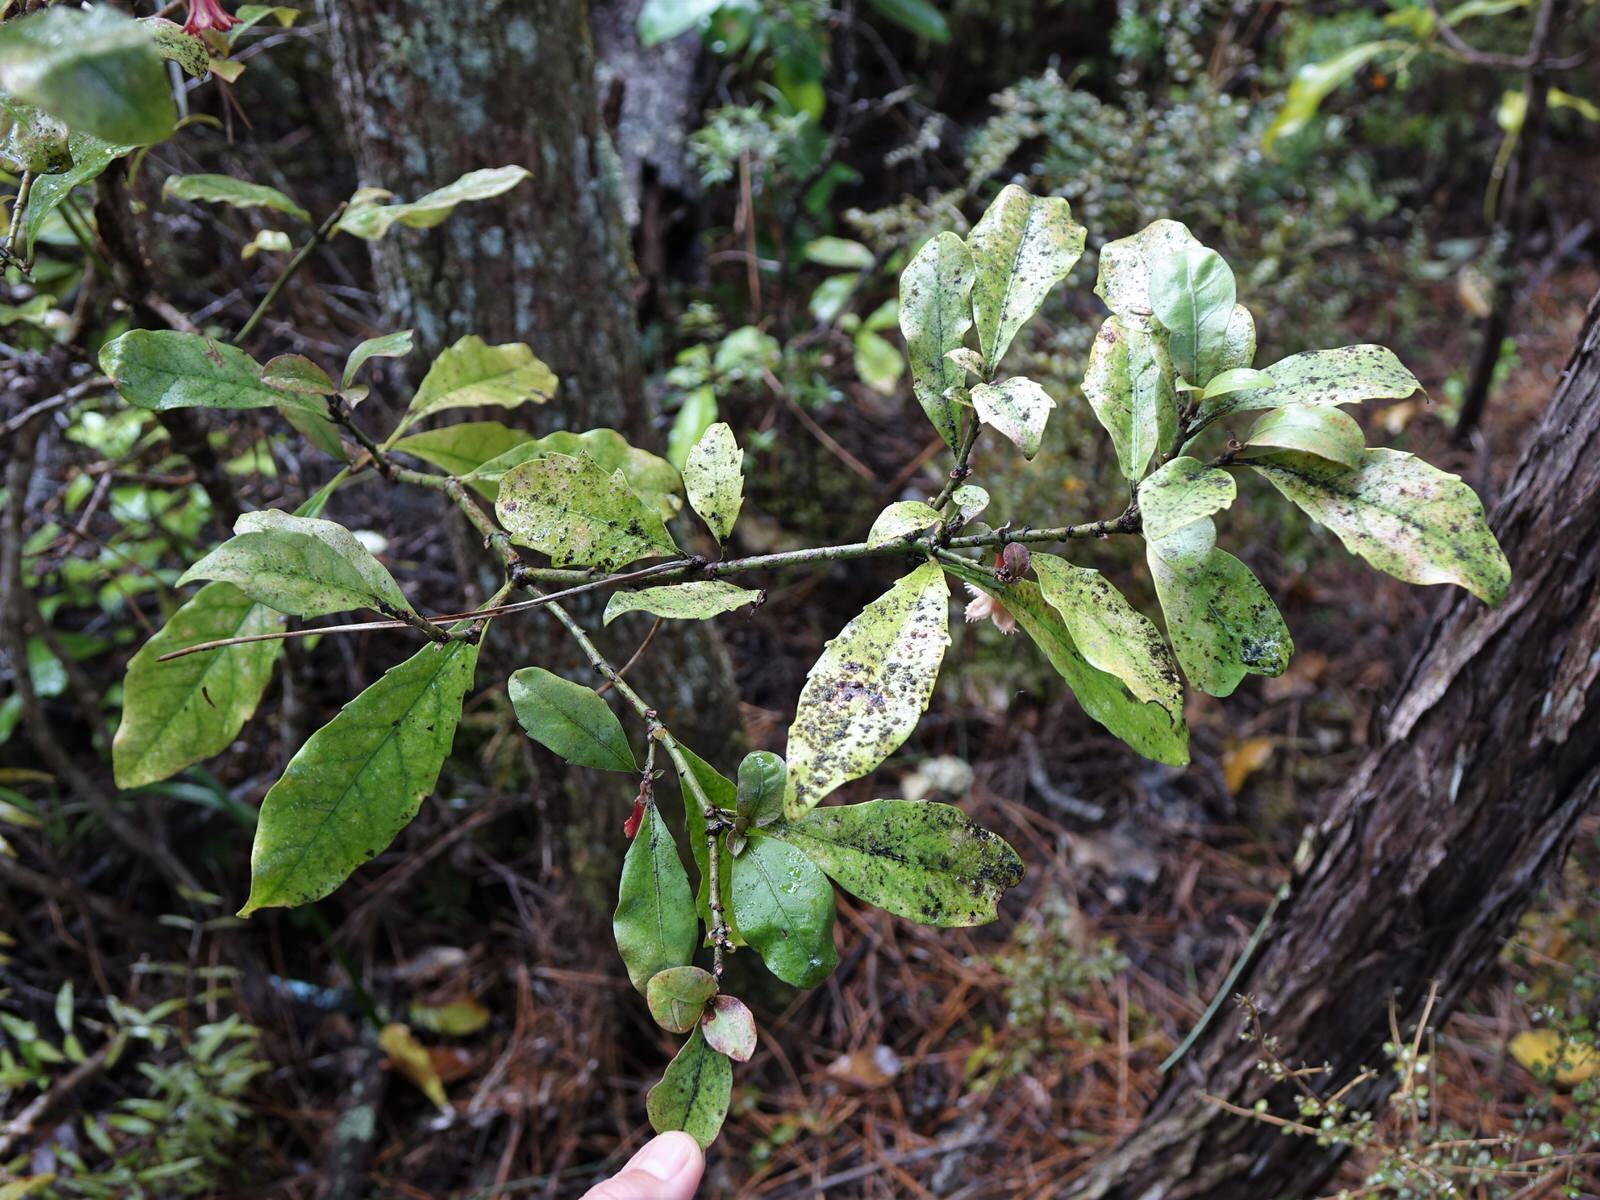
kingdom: Plantae
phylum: Tracheophyta
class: Magnoliopsida
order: Asterales
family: Alseuosmiaceae
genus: Alseuosmia
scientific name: Alseuosmia macrophylla
